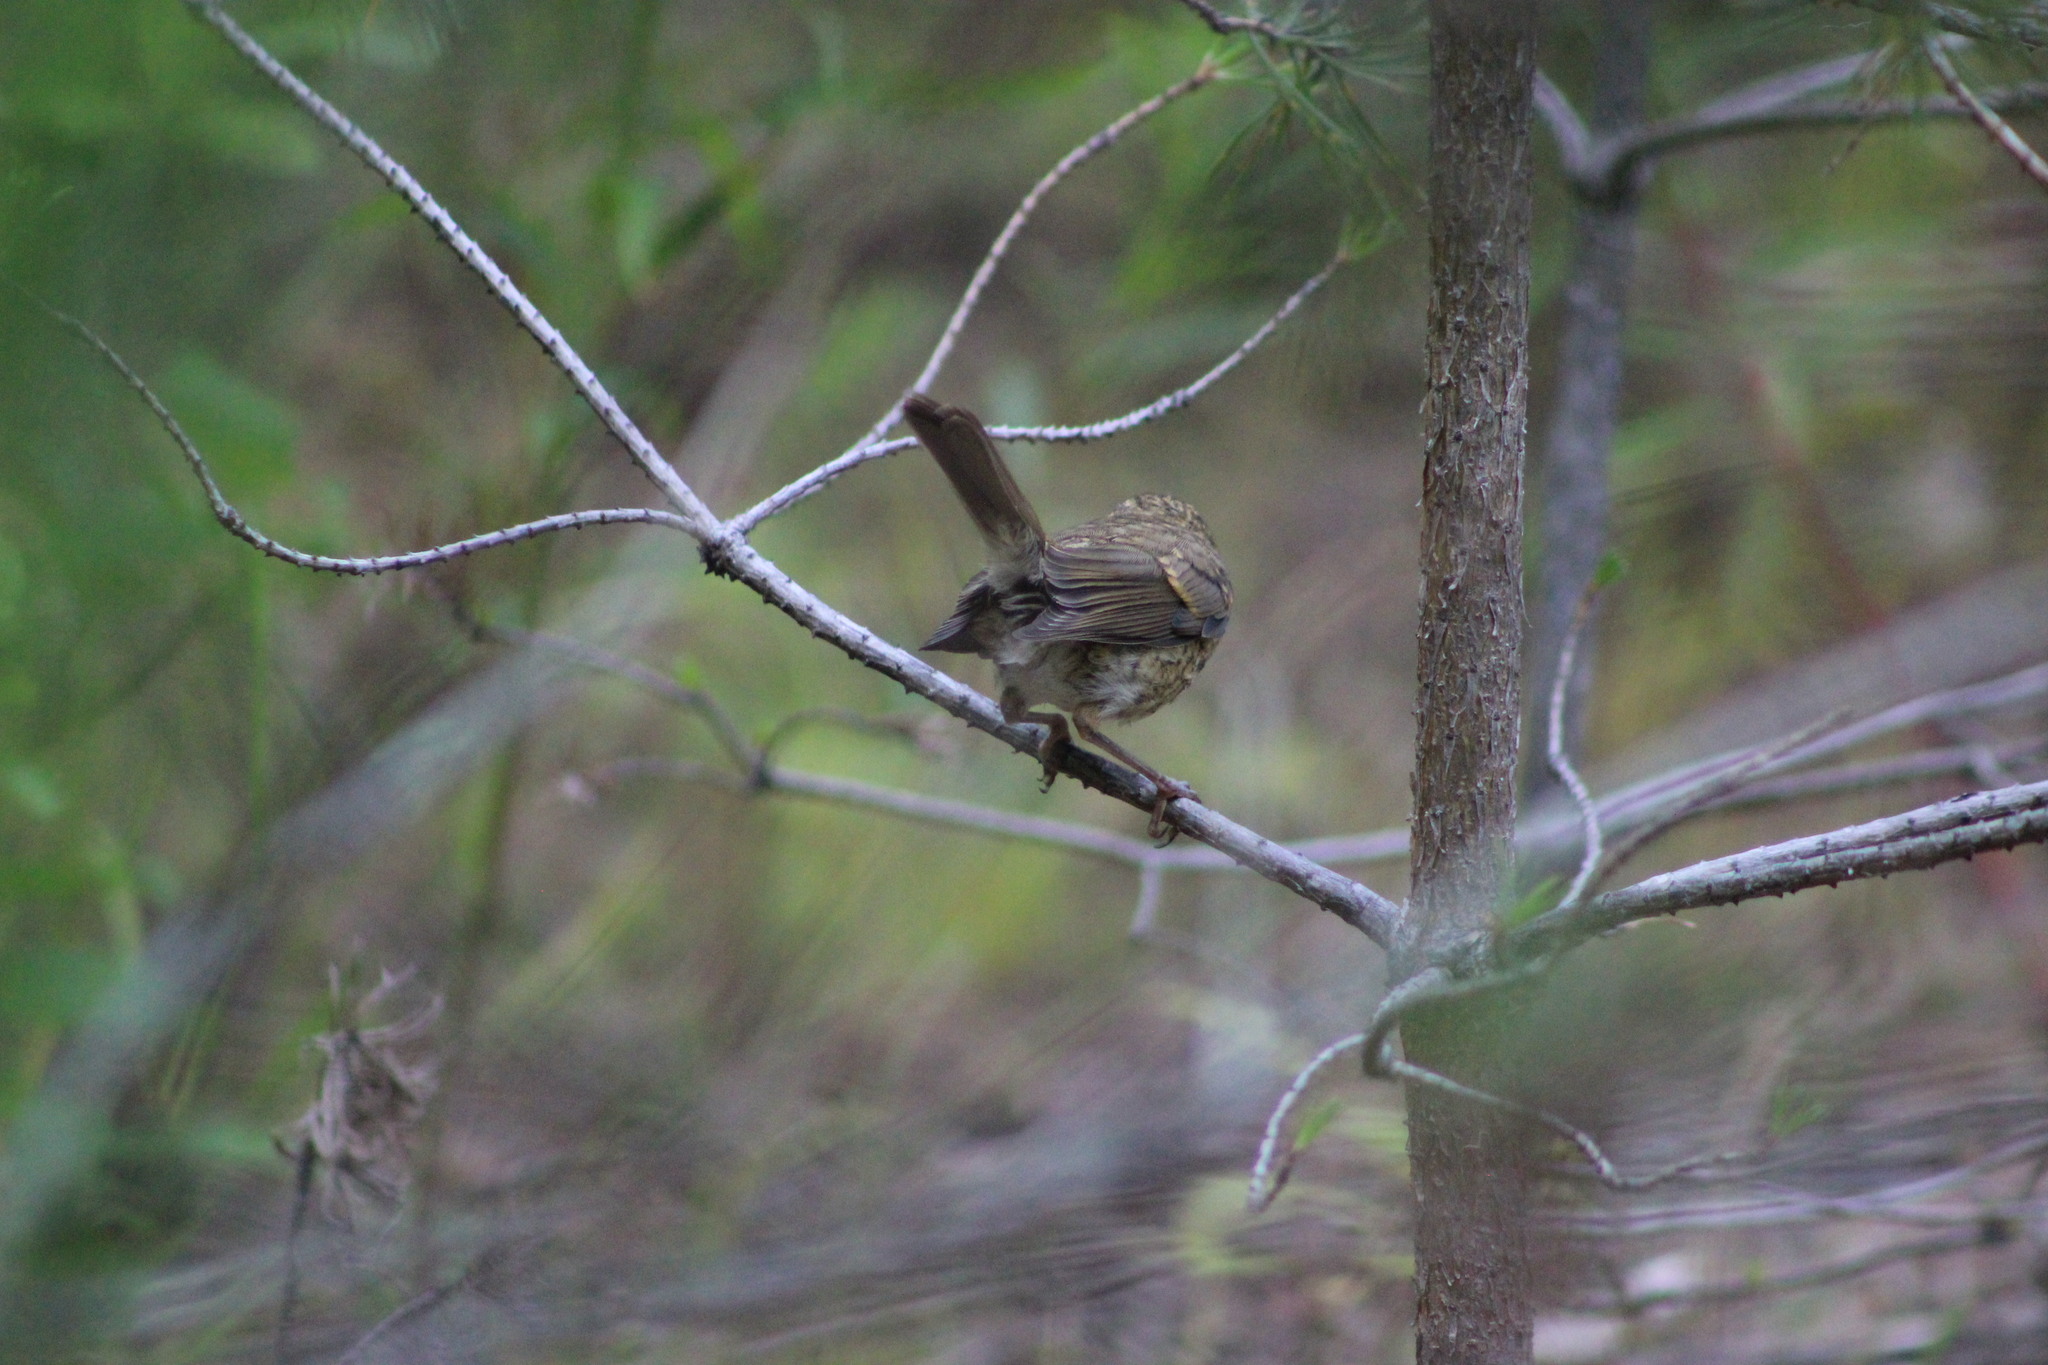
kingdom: Animalia
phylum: Chordata
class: Aves
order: Passeriformes
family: Muscicapidae
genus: Tarsiger
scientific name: Tarsiger cyanurus
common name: Red-flanked bluetail
